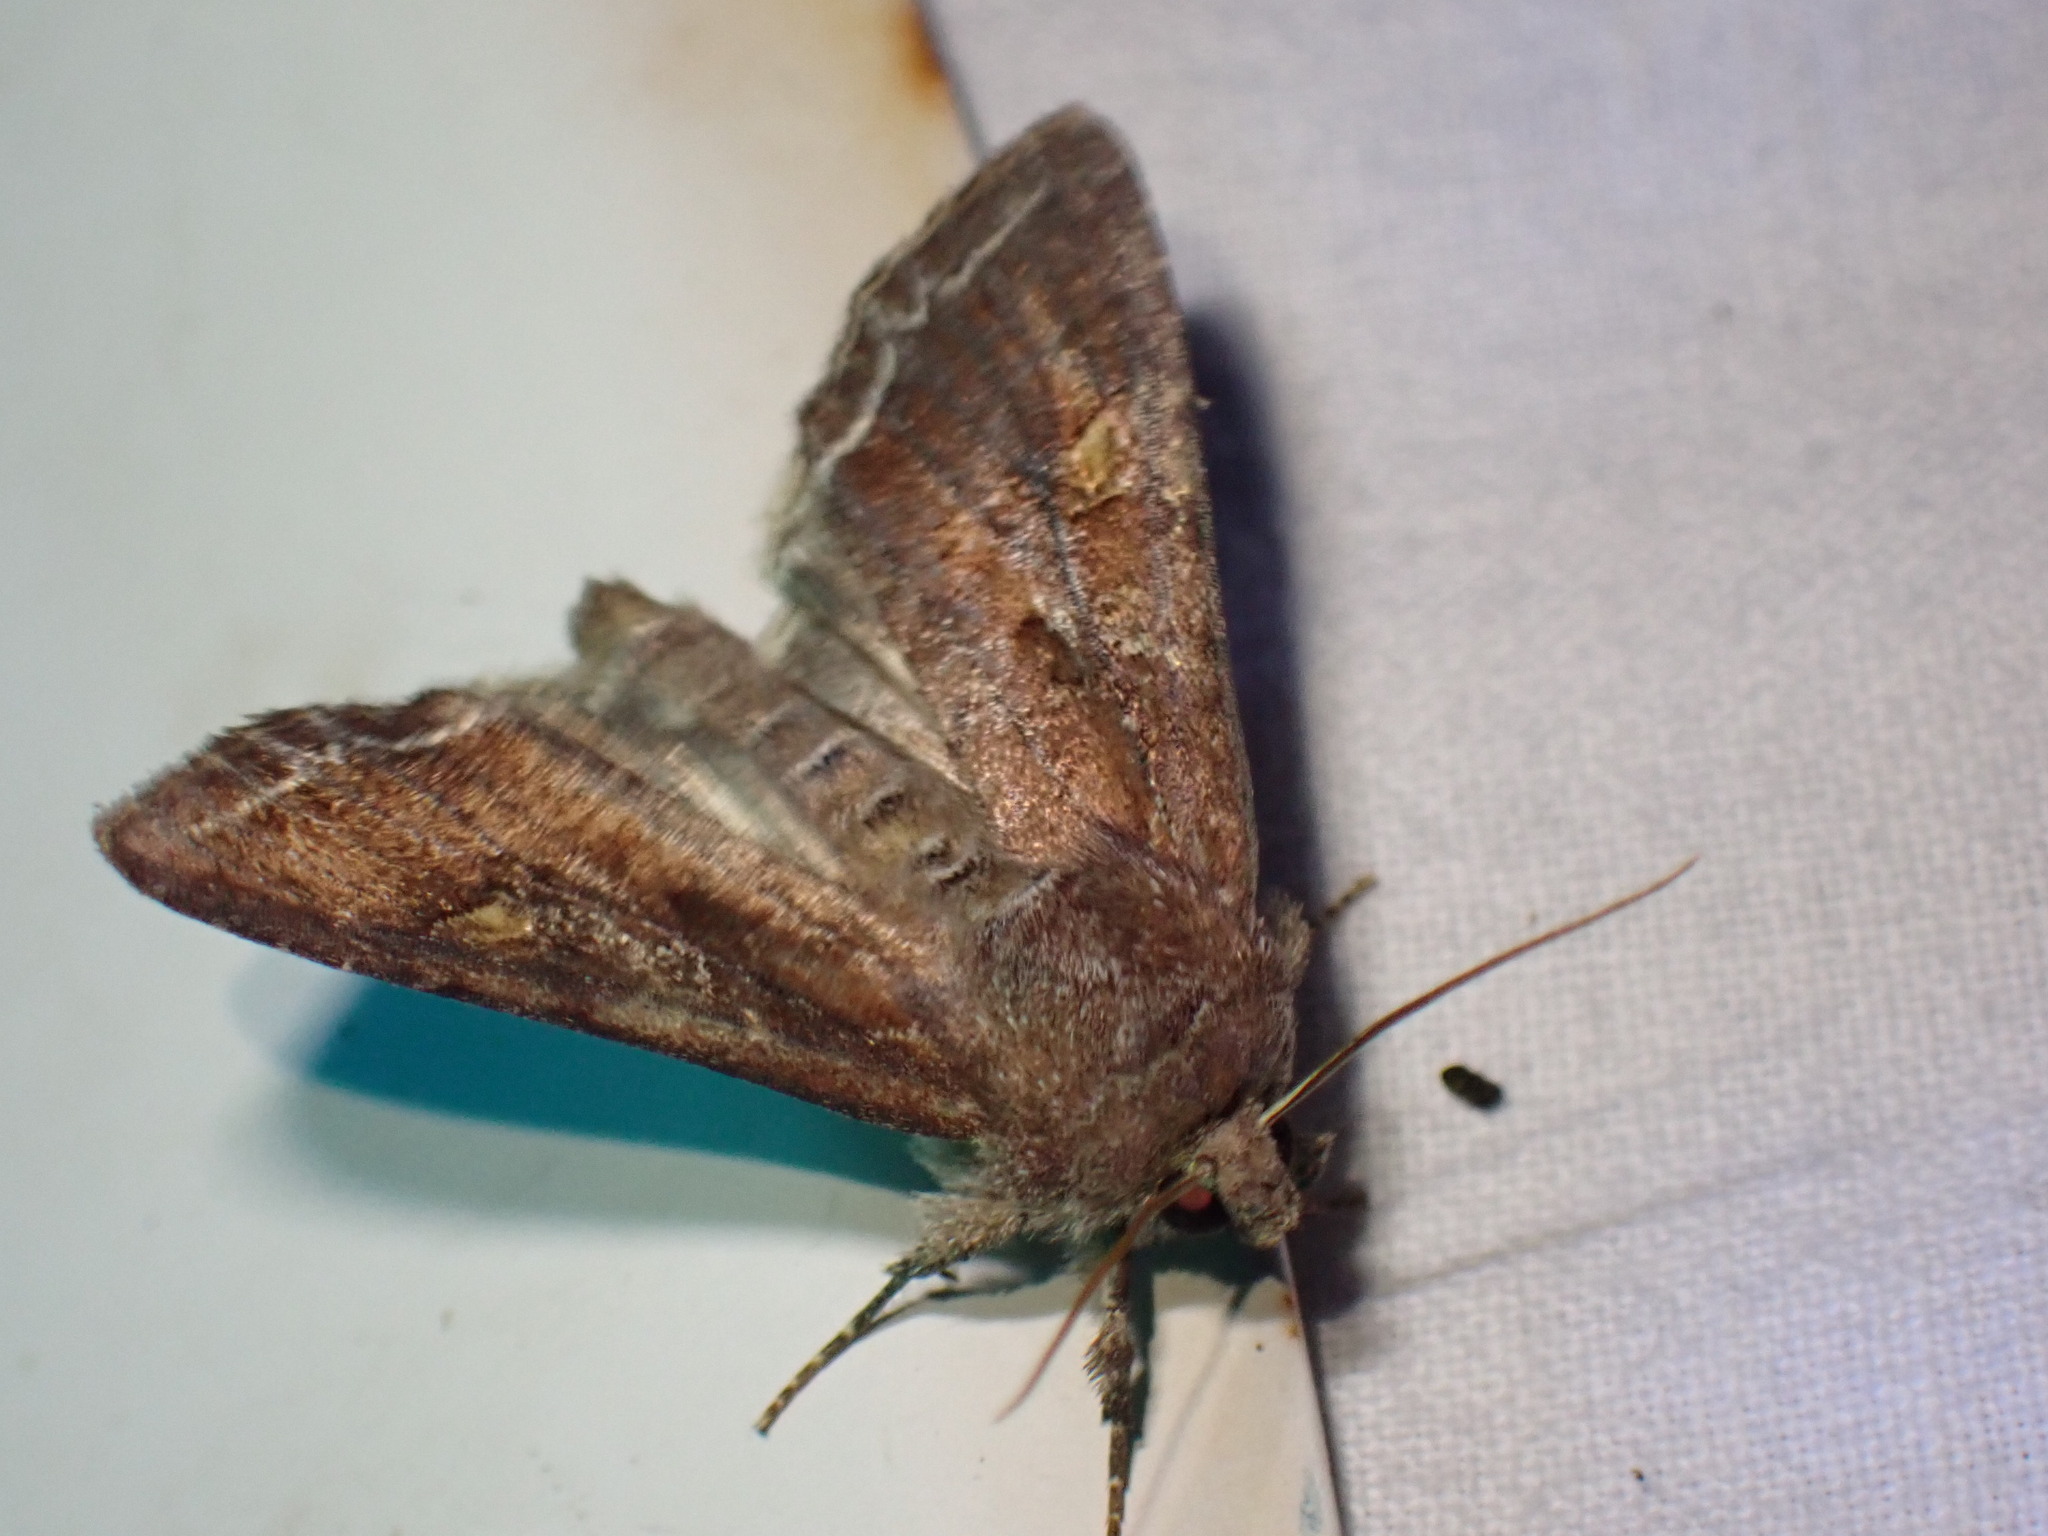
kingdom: Animalia
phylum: Arthropoda
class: Insecta
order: Lepidoptera
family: Noctuidae
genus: Lacanobia
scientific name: Lacanobia oleracea
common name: Bright-line brown-eye
